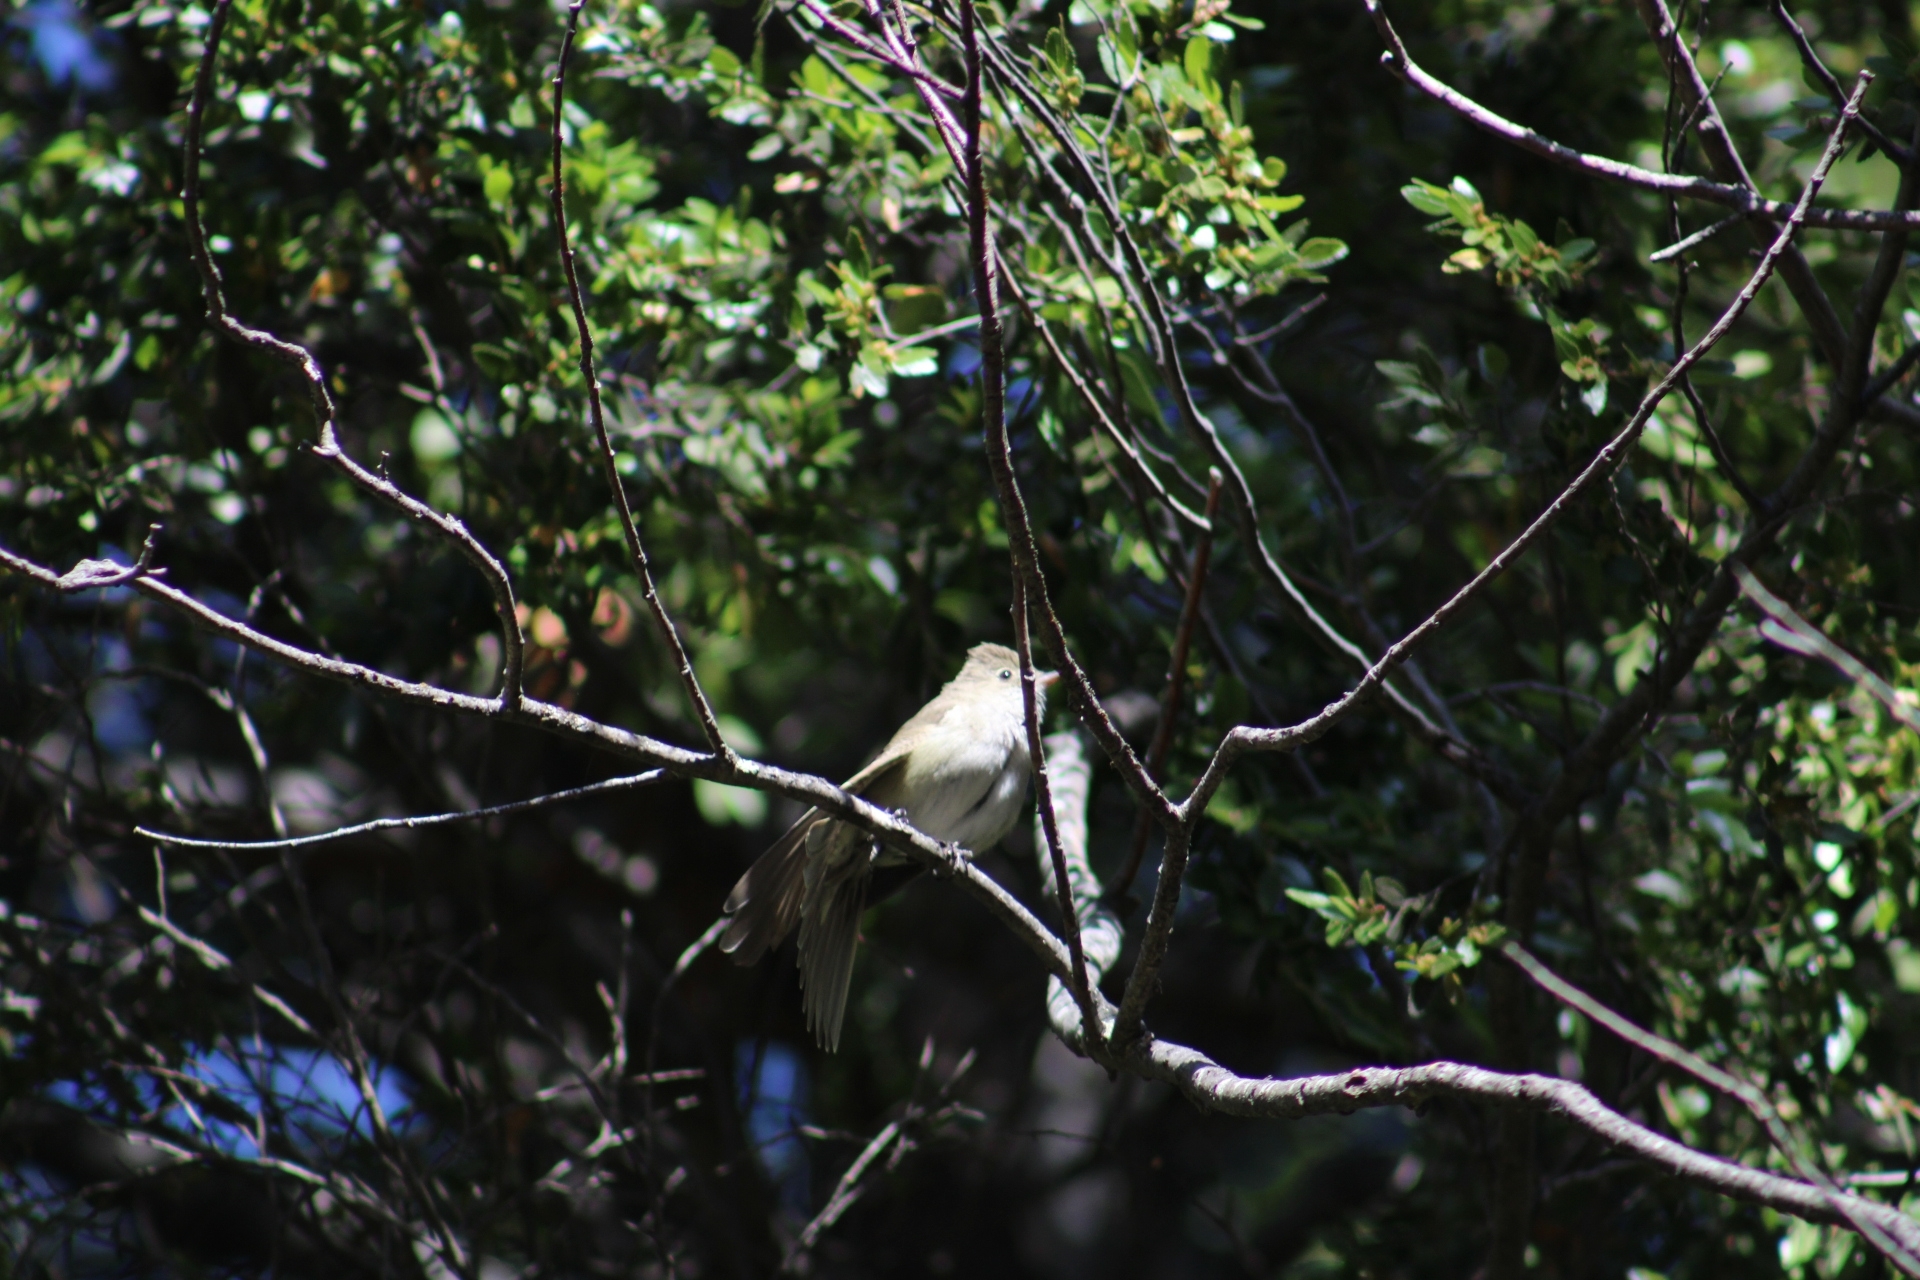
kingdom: Animalia
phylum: Chordata
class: Aves
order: Passeriformes
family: Tyrannidae
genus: Elaenia
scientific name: Elaenia albiceps
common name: White-crested elaenia
